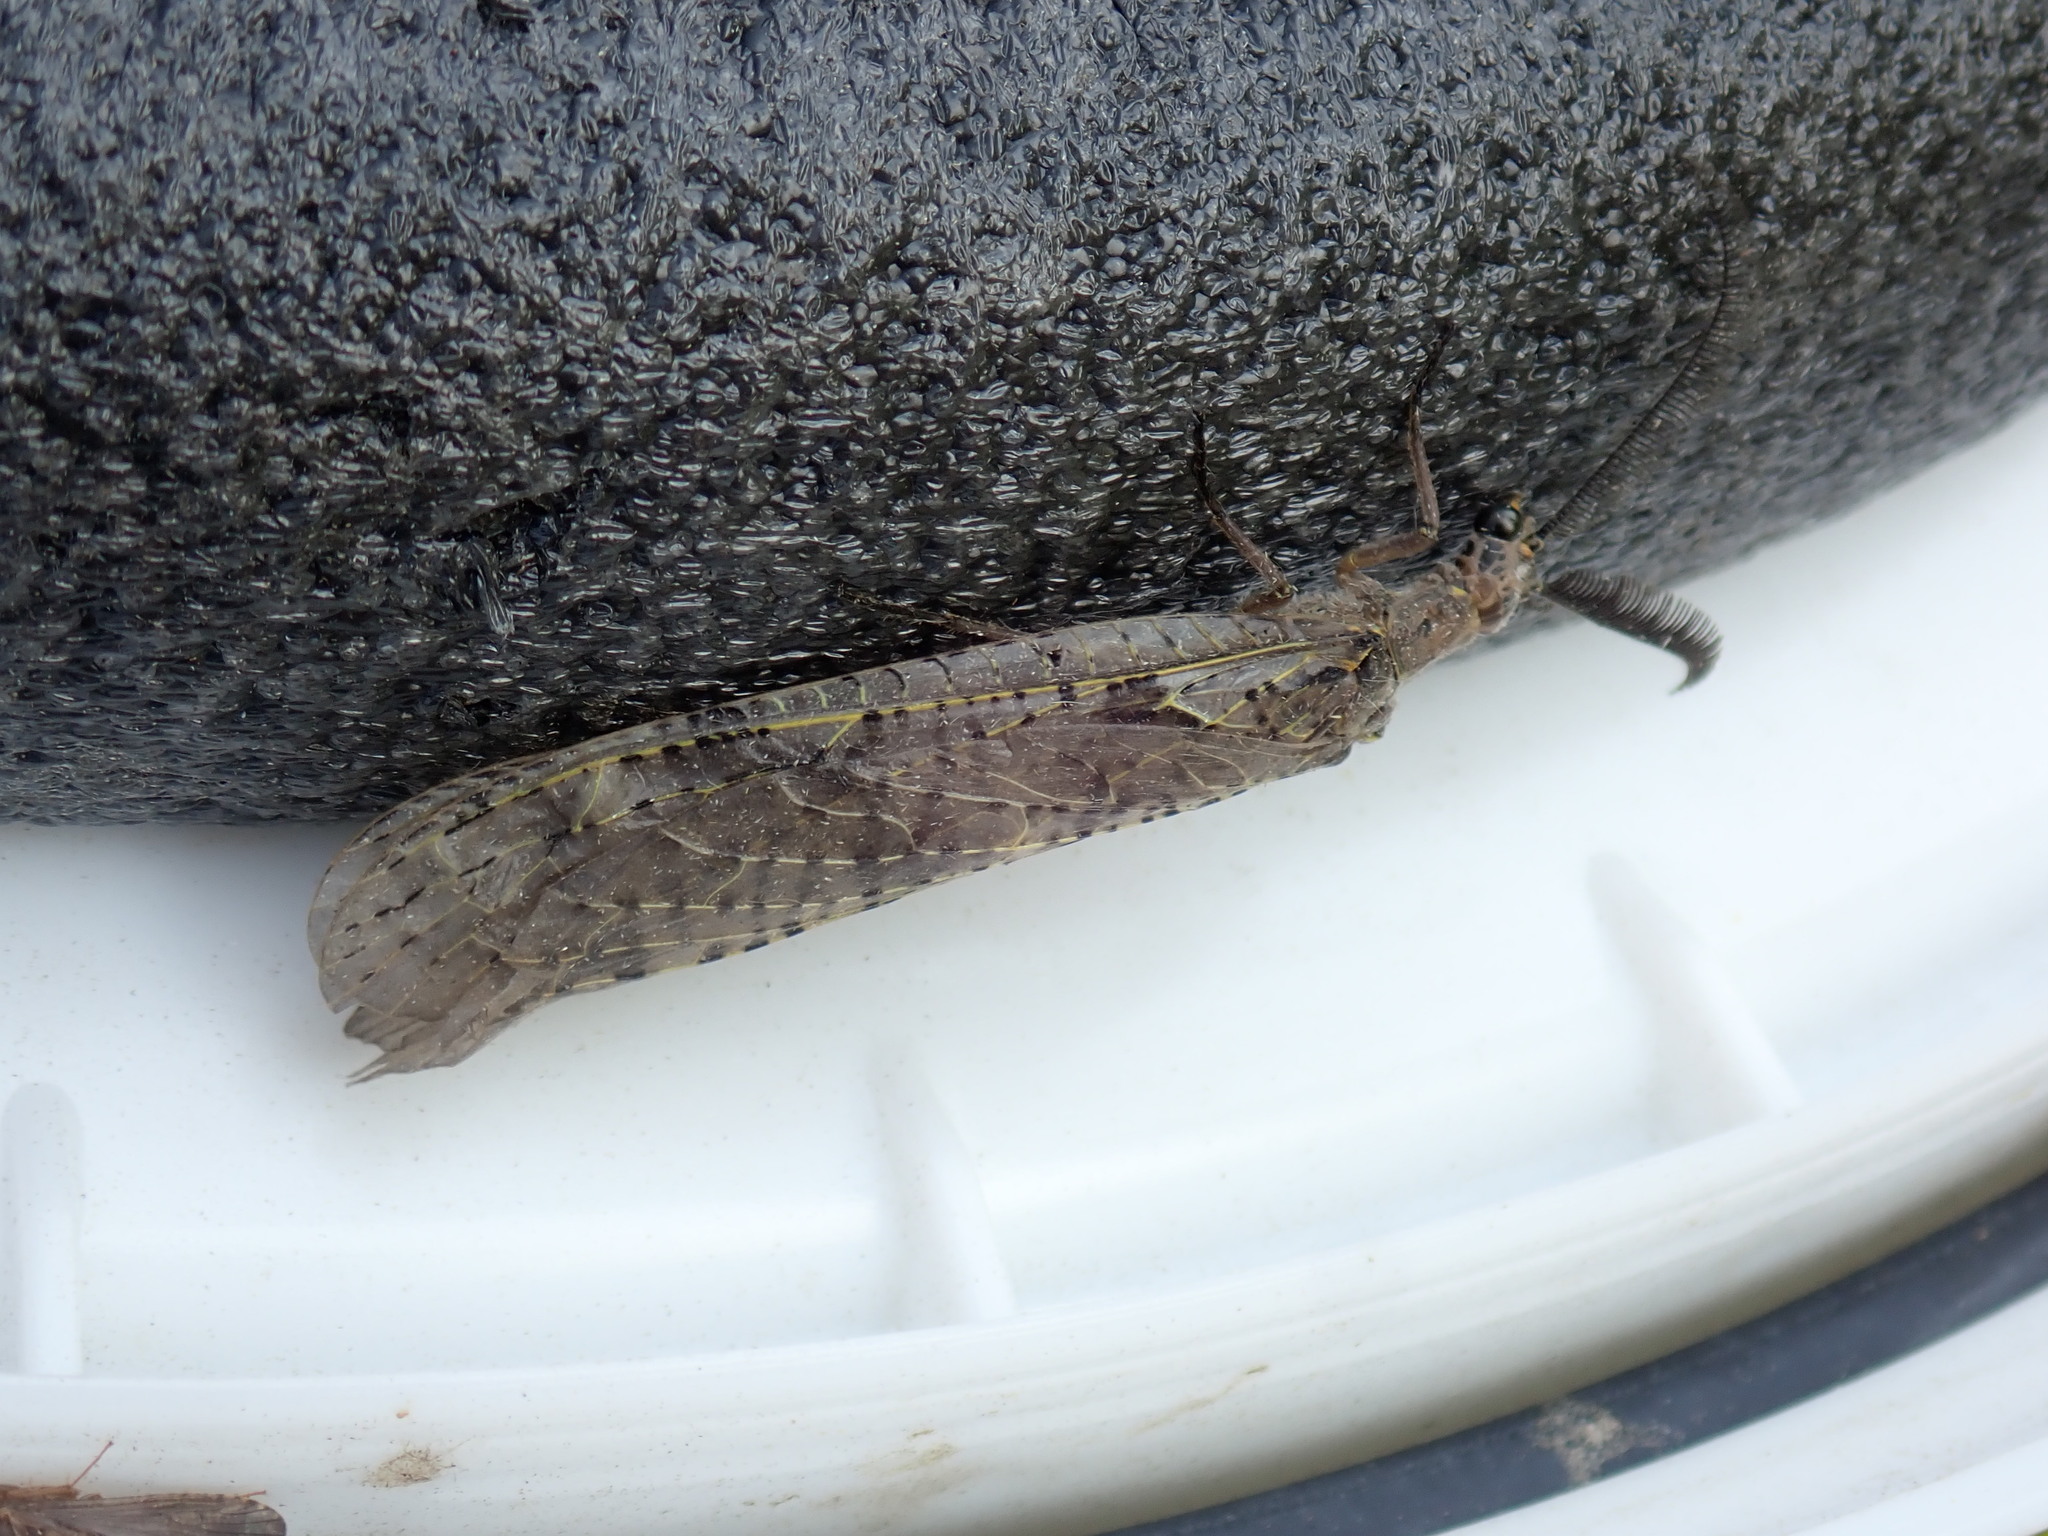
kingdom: Animalia
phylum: Arthropoda
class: Insecta
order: Megaloptera
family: Corydalidae
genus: Chauliodes
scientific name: Chauliodes rastricornis
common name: Spring fishfly
